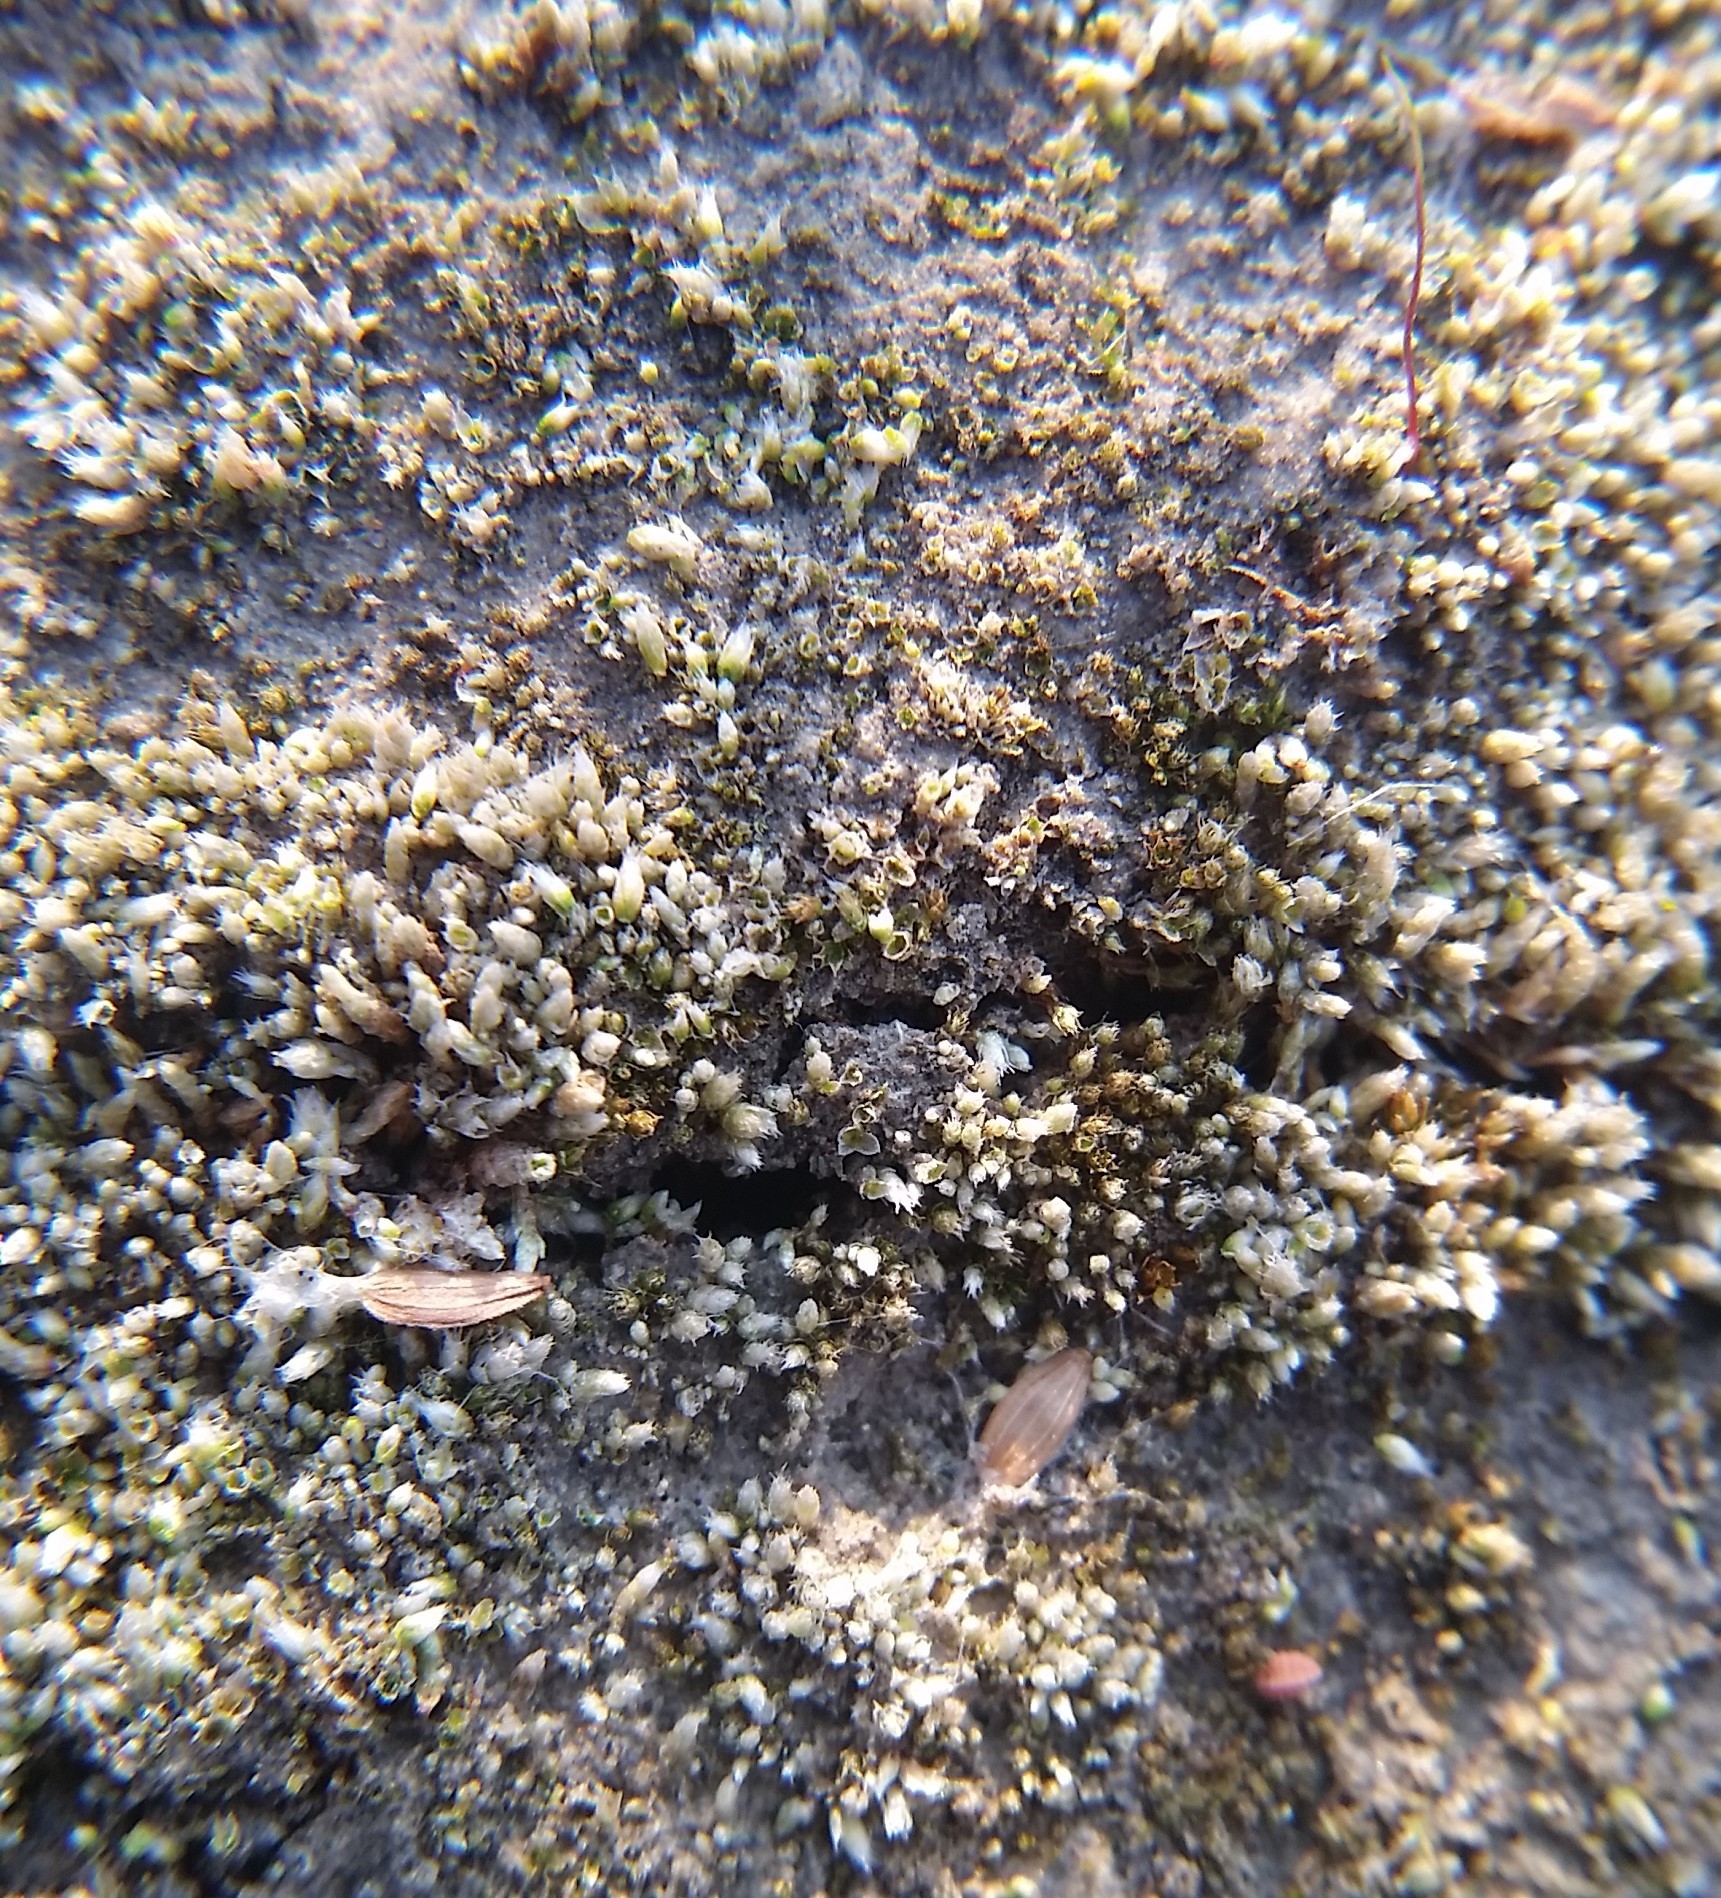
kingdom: Plantae
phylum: Bryophyta
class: Bryopsida
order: Bryales
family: Bryaceae
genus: Bryum
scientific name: Bryum argenteum
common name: Silver-moss
